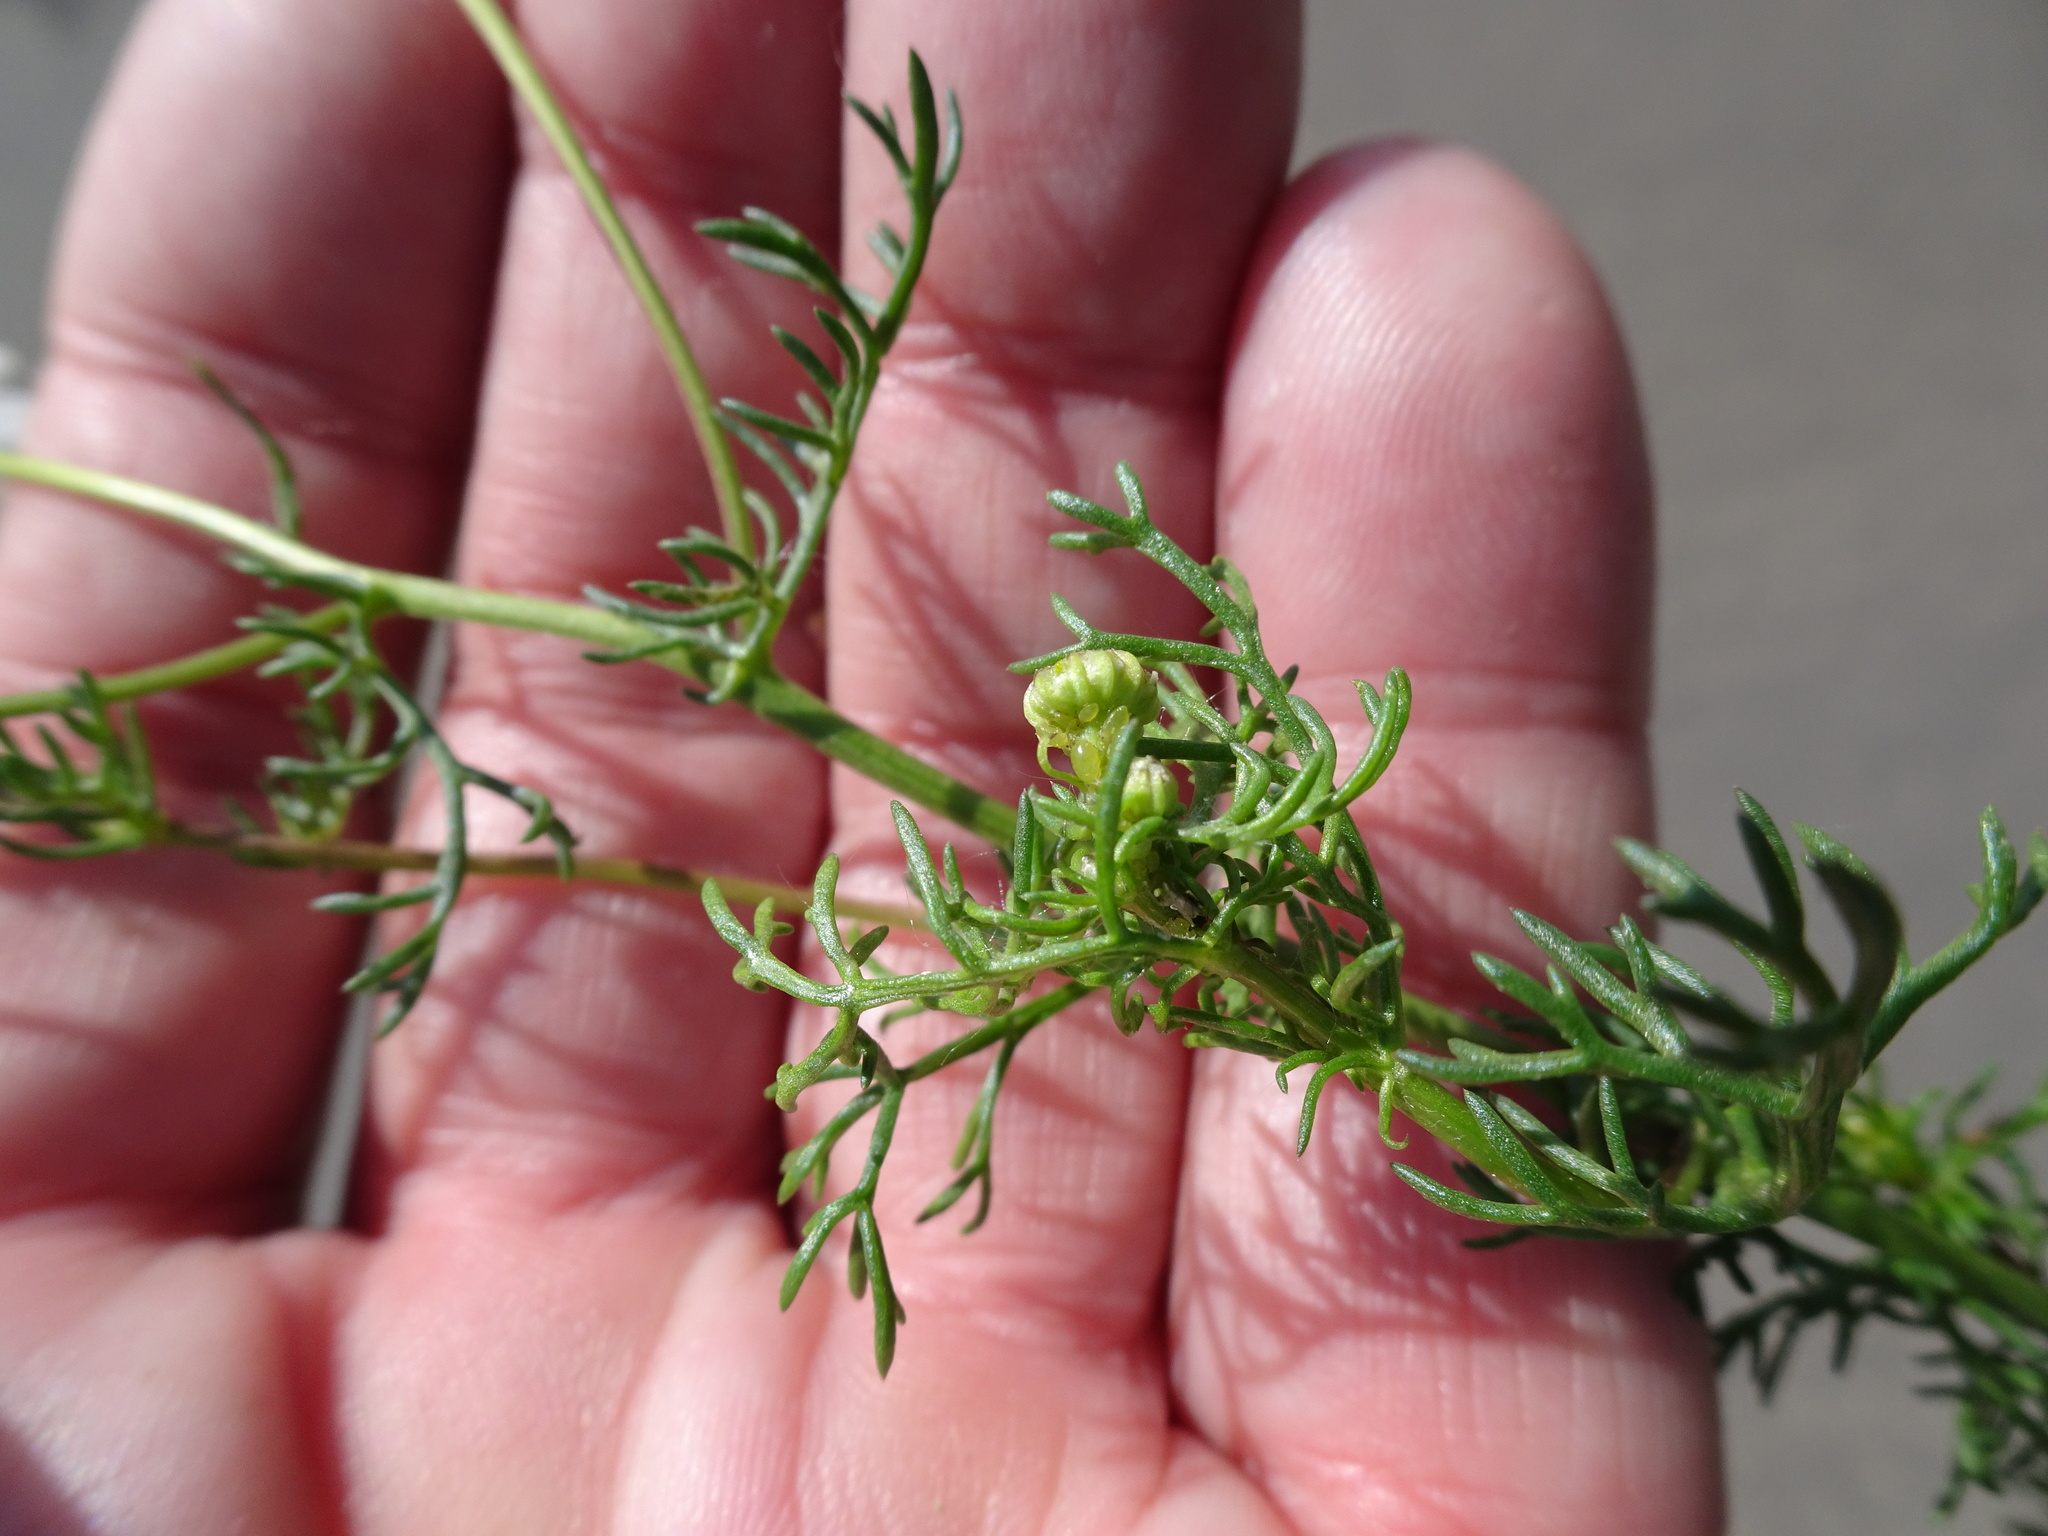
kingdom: Plantae
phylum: Tracheophyta
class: Magnoliopsida
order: Asterales
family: Asteraceae
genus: Matricaria
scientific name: Matricaria chamomilla
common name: Scented mayweed
